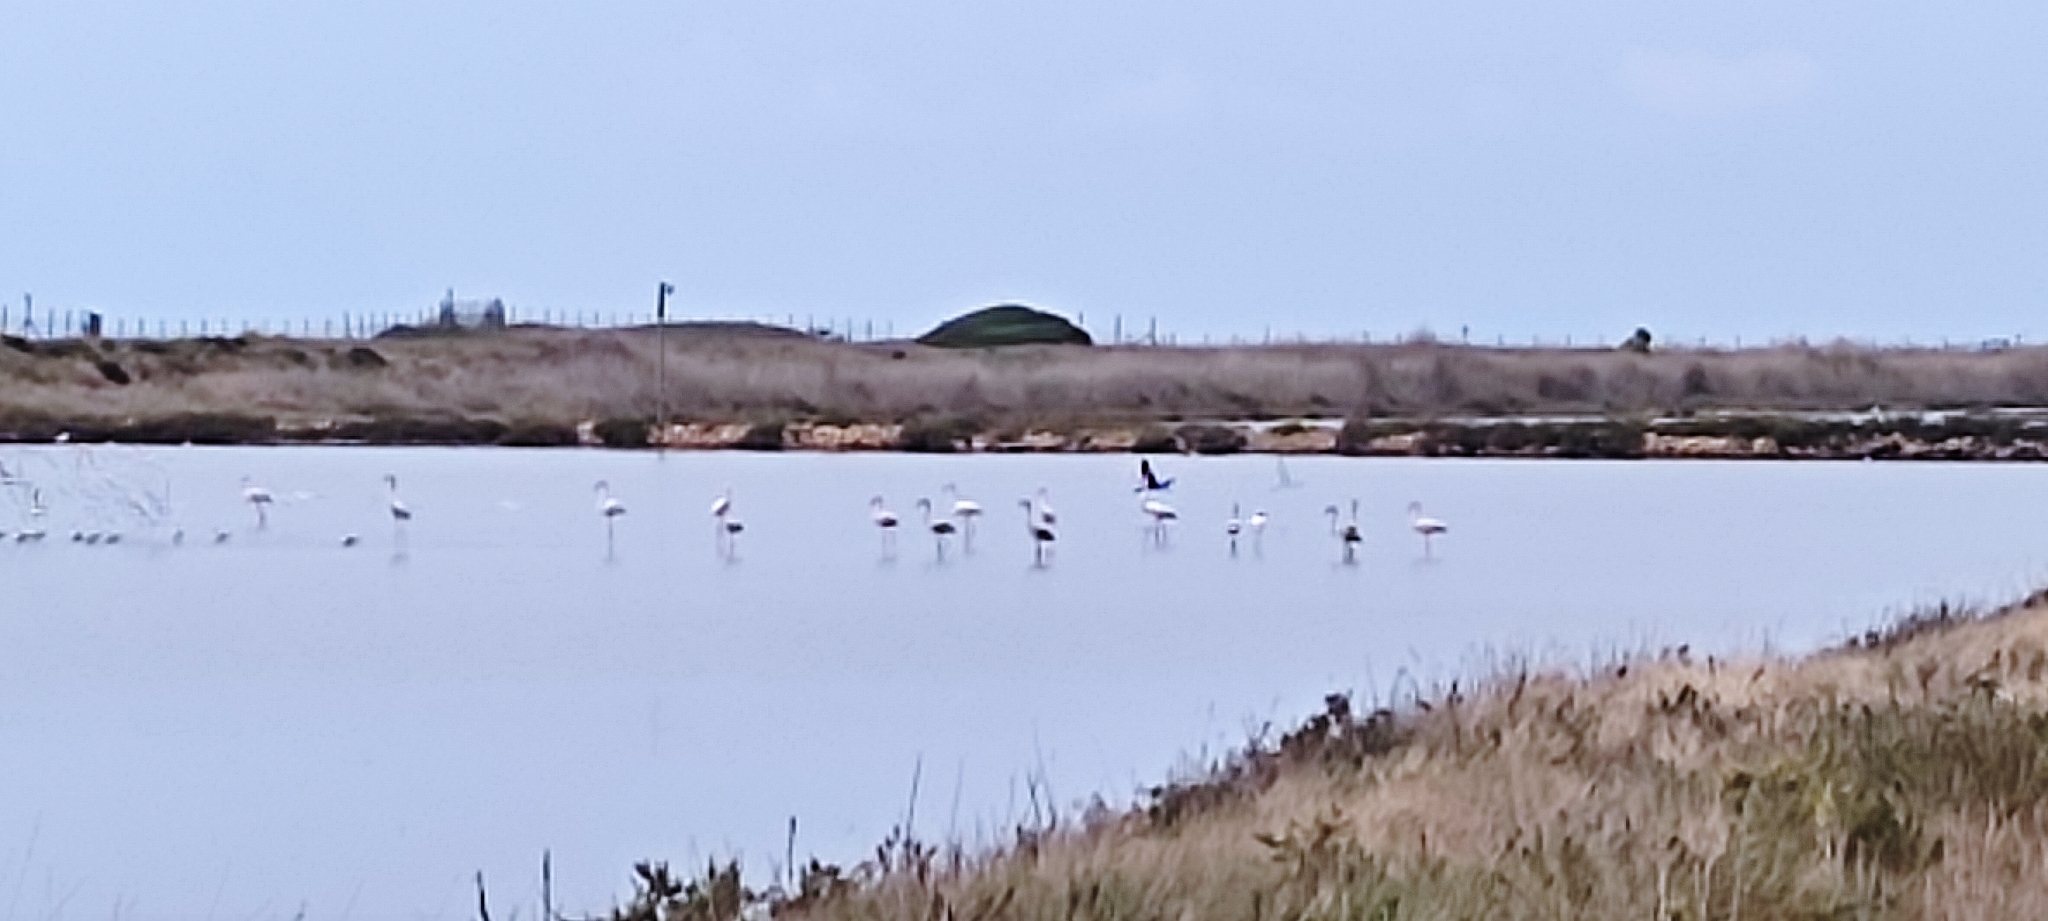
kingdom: Animalia
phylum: Chordata
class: Aves
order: Phoenicopteriformes
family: Phoenicopteridae
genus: Phoenicopterus
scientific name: Phoenicopterus roseus
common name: Greater flamingo
